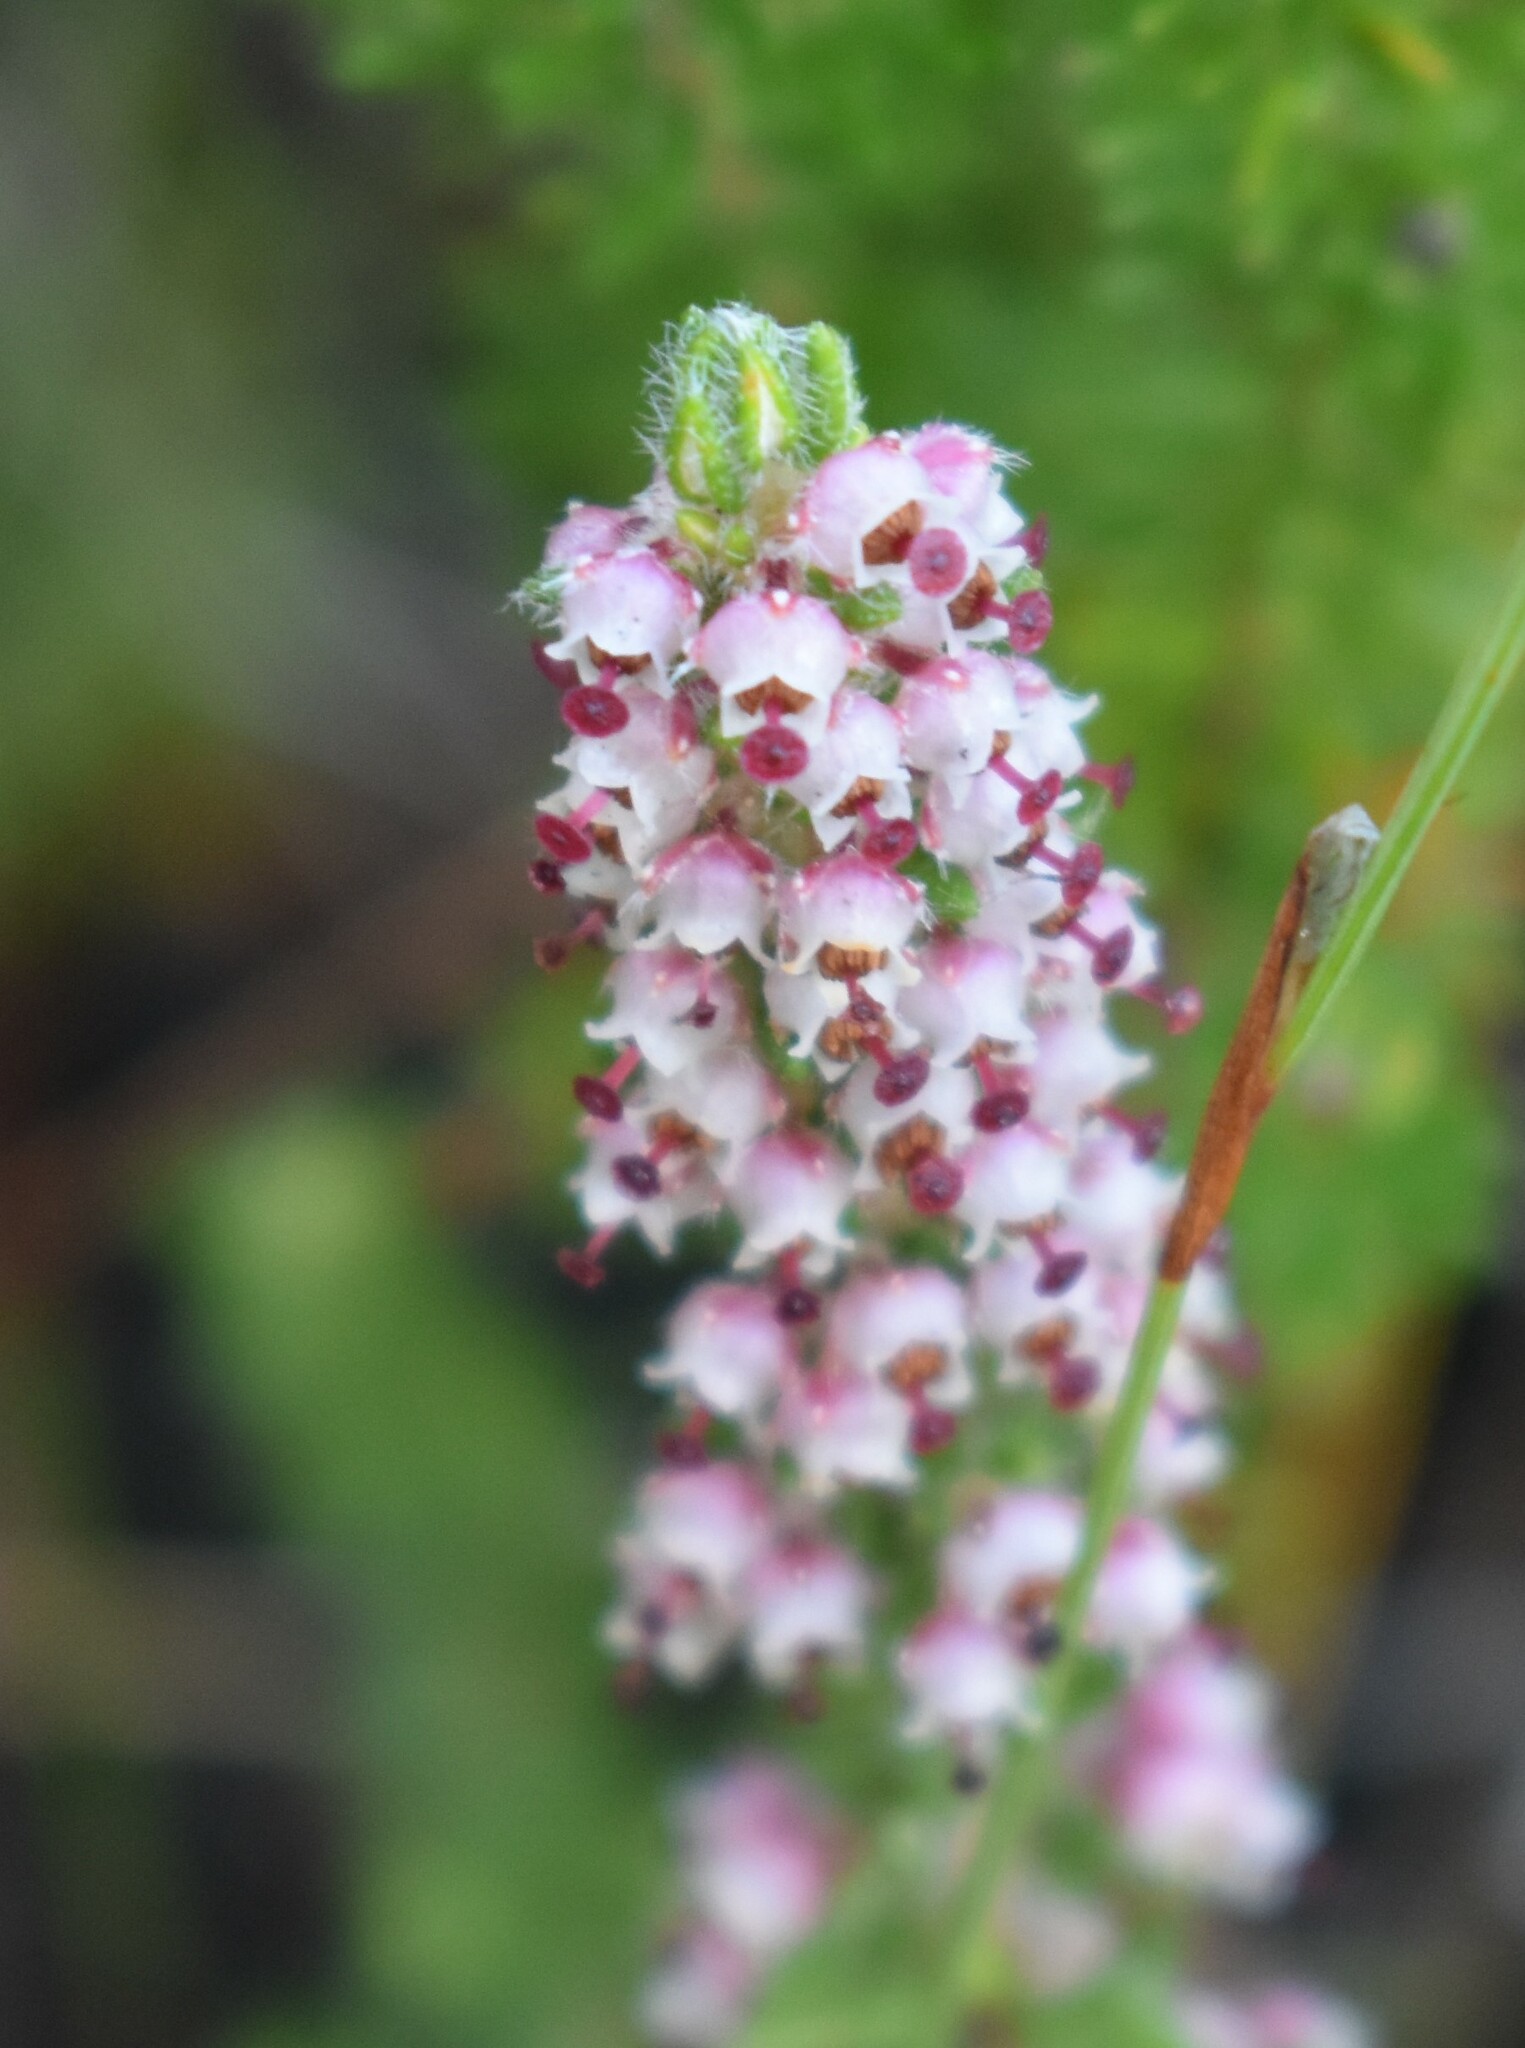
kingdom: Plantae
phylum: Tracheophyta
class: Magnoliopsida
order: Ericales
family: Ericaceae
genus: Erica
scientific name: Erica cordata
